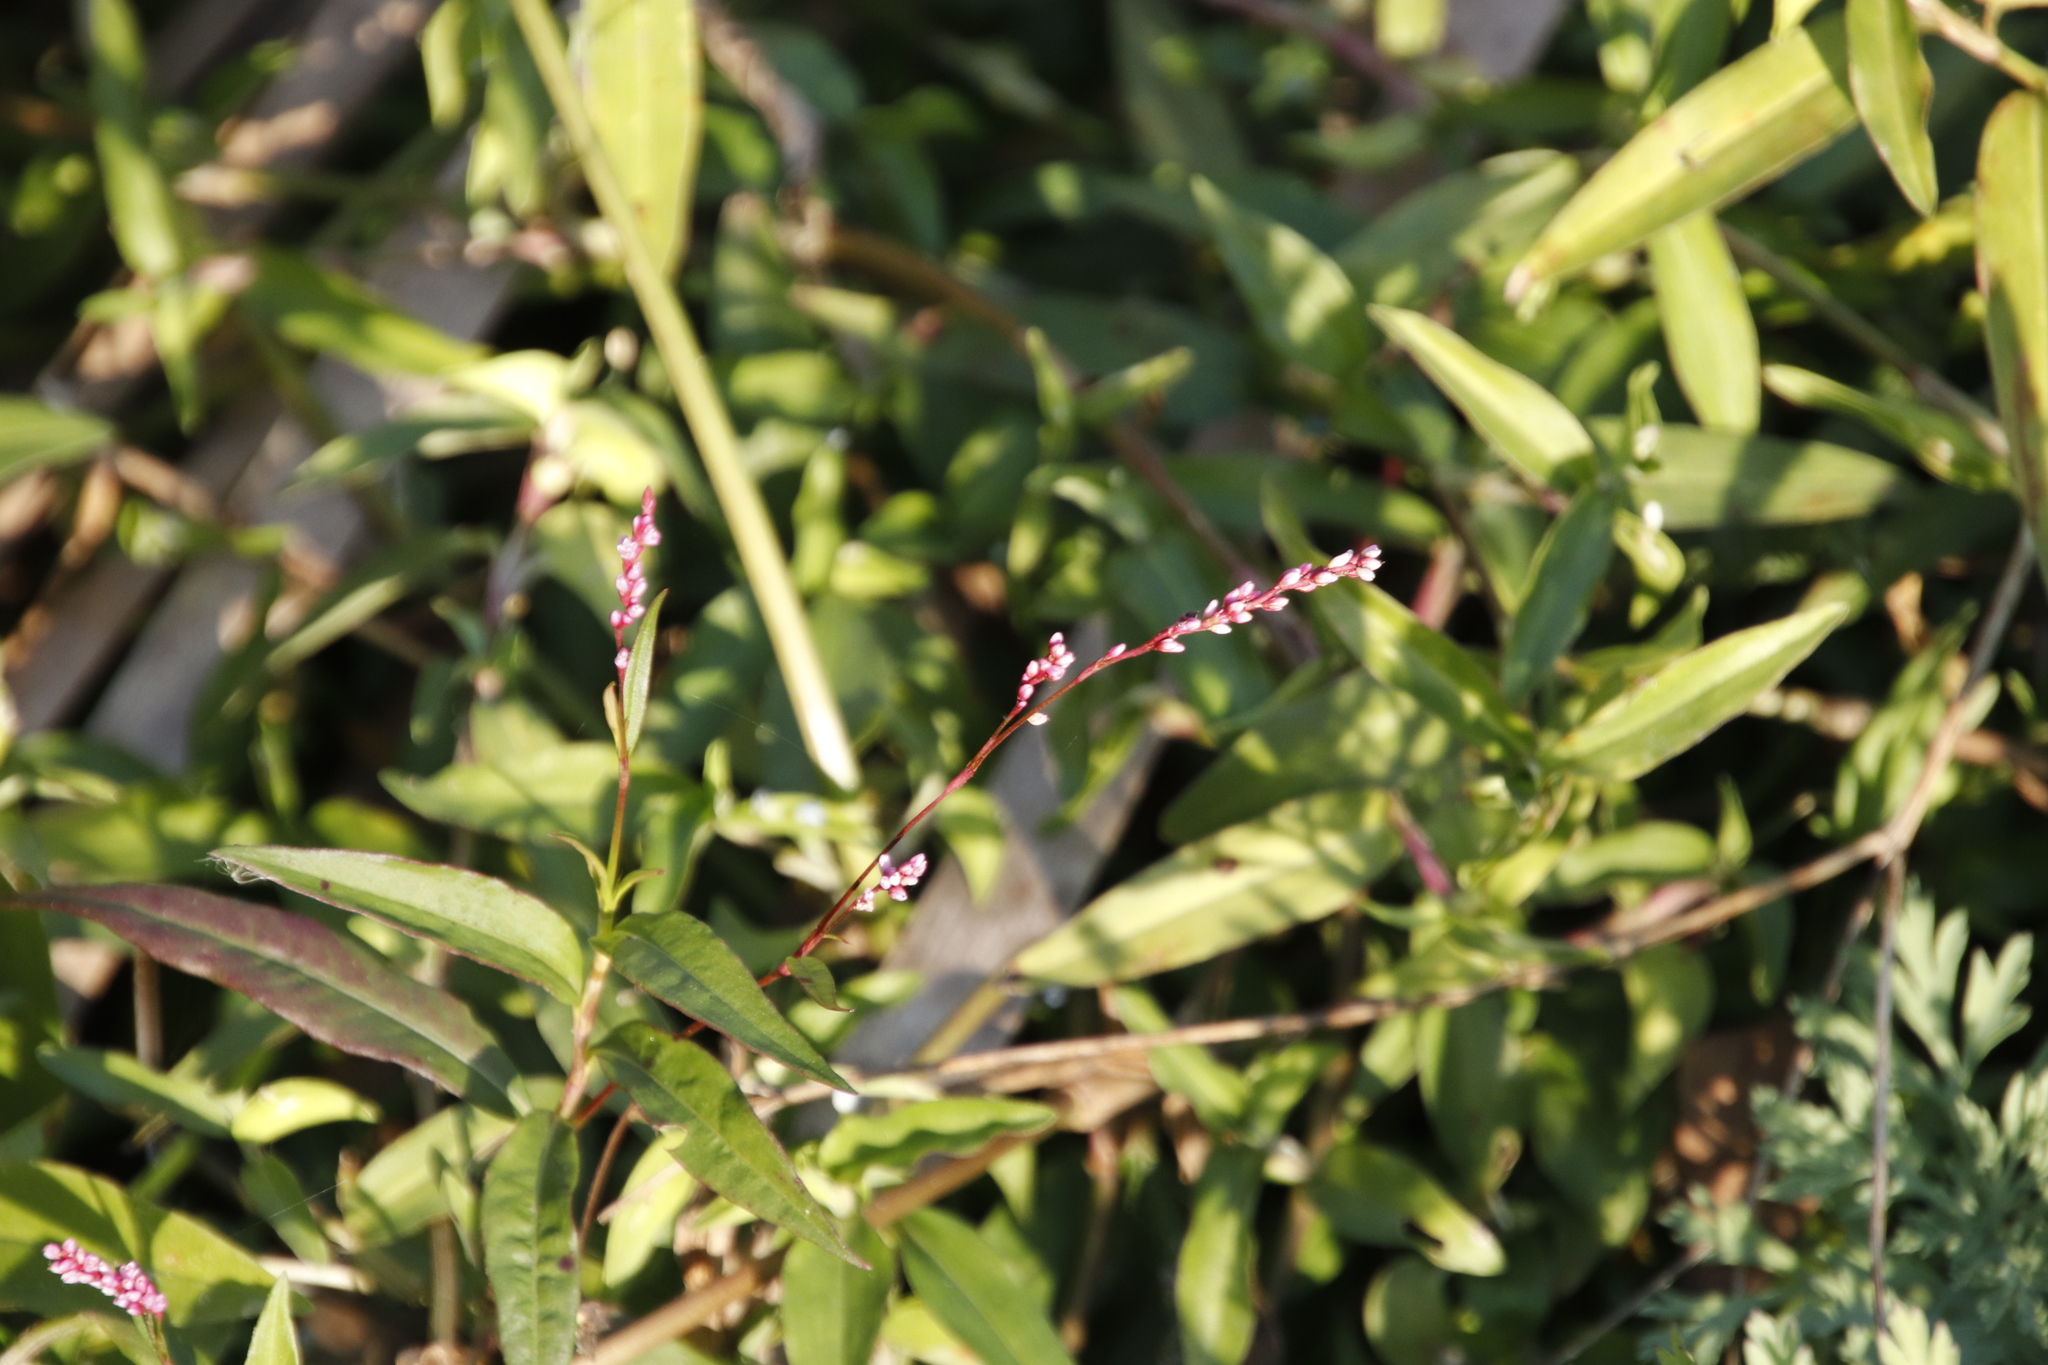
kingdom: Plantae
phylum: Tracheophyta
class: Magnoliopsida
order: Caryophyllales
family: Polygonaceae
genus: Persicaria
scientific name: Persicaria decipiens
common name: Willow-weed
